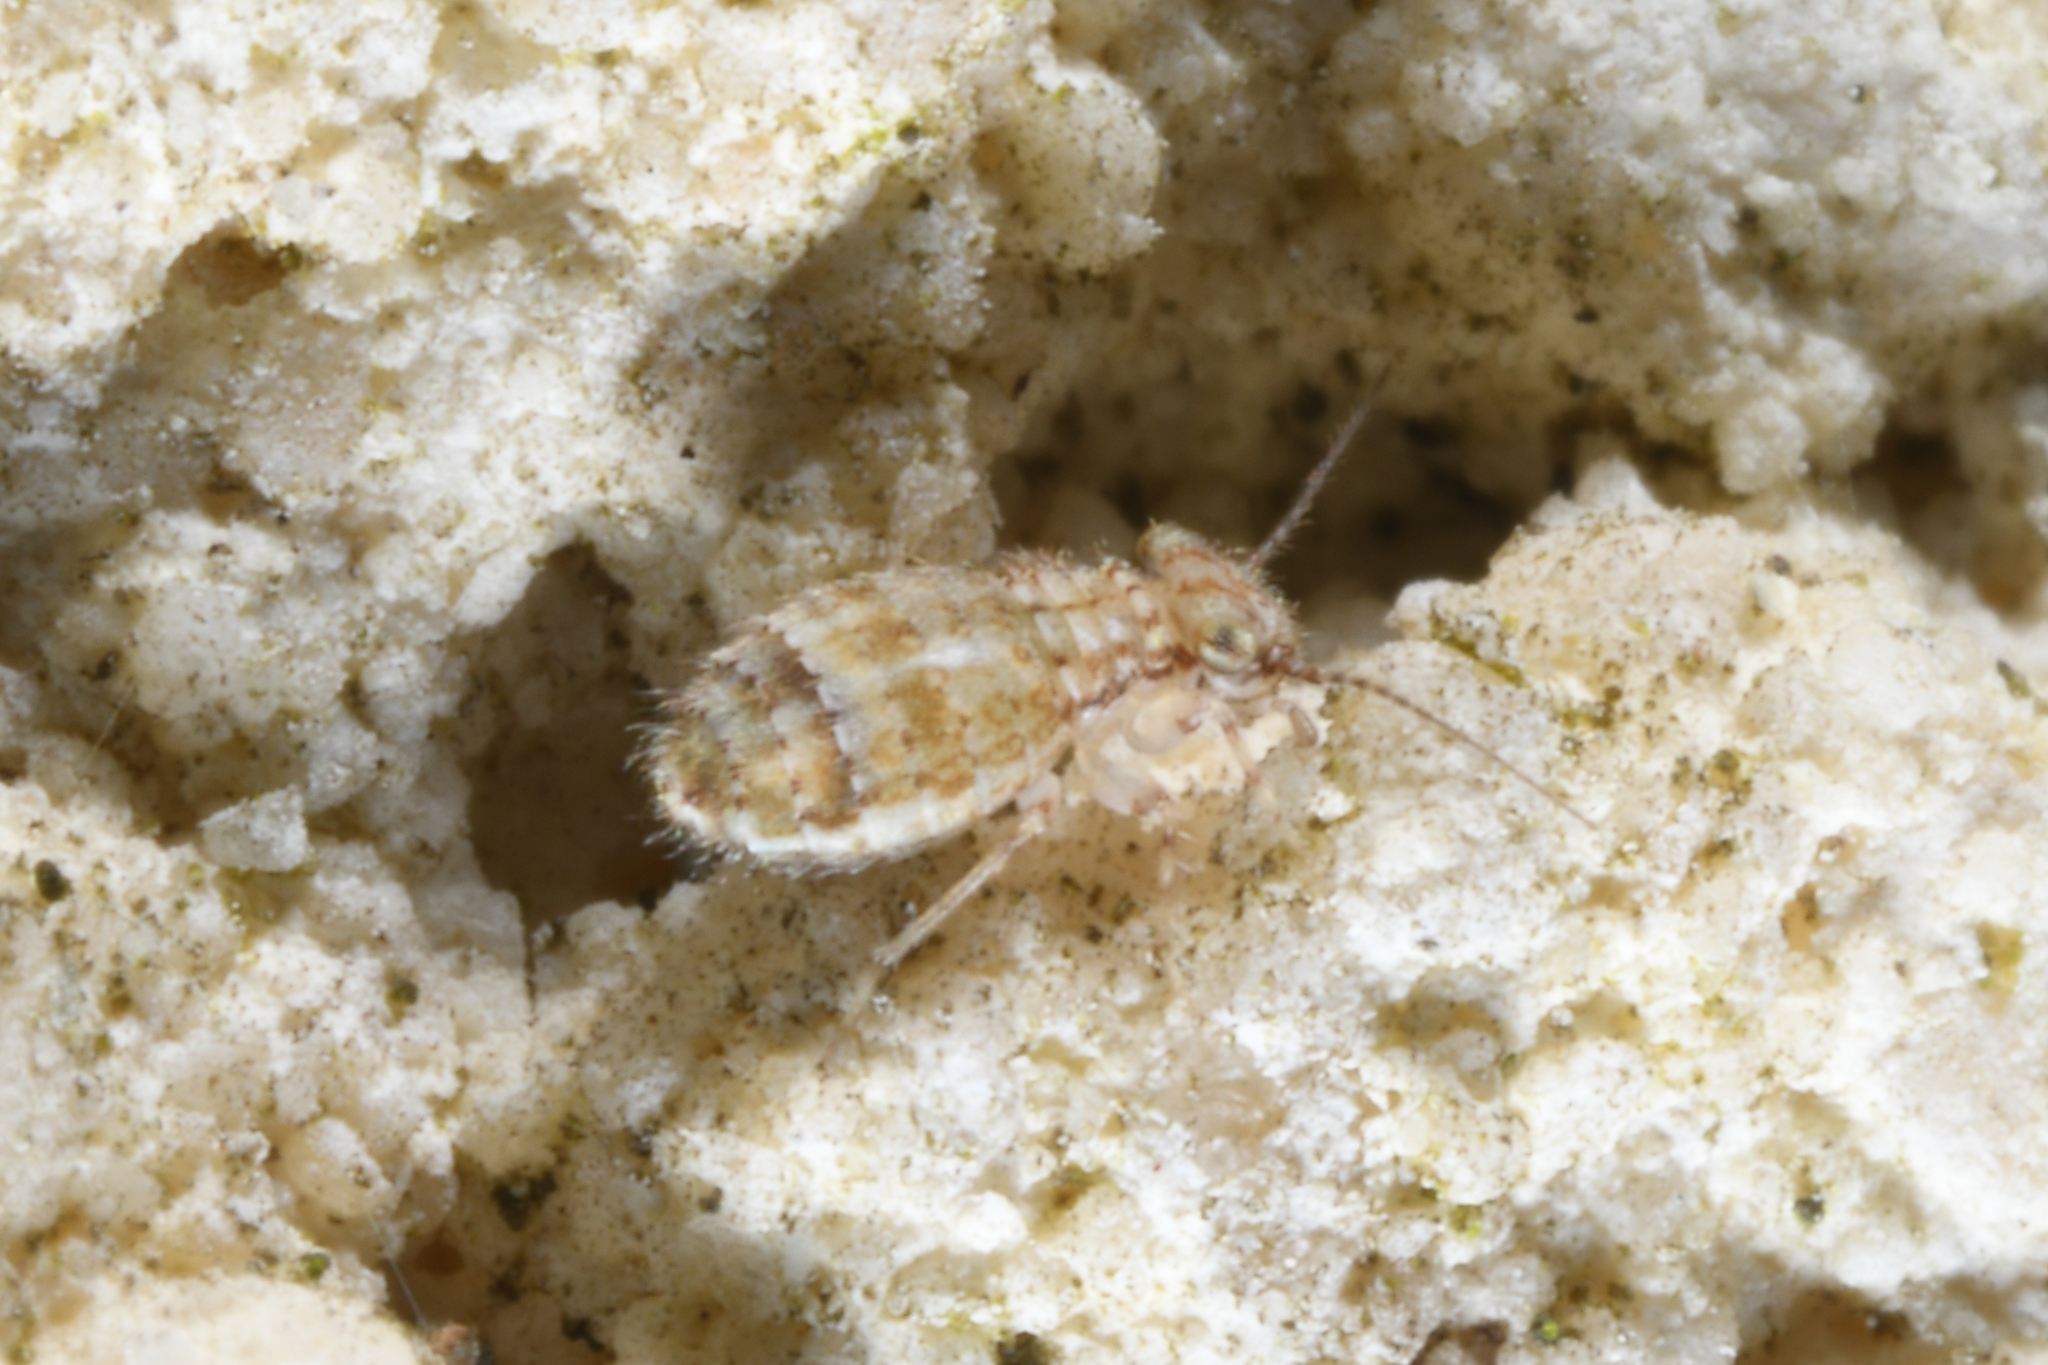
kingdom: Animalia
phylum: Arthropoda
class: Insecta
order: Psocodea
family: Trogiidae
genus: Cerobasis
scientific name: Cerobasis guestfalica
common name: Book lice
